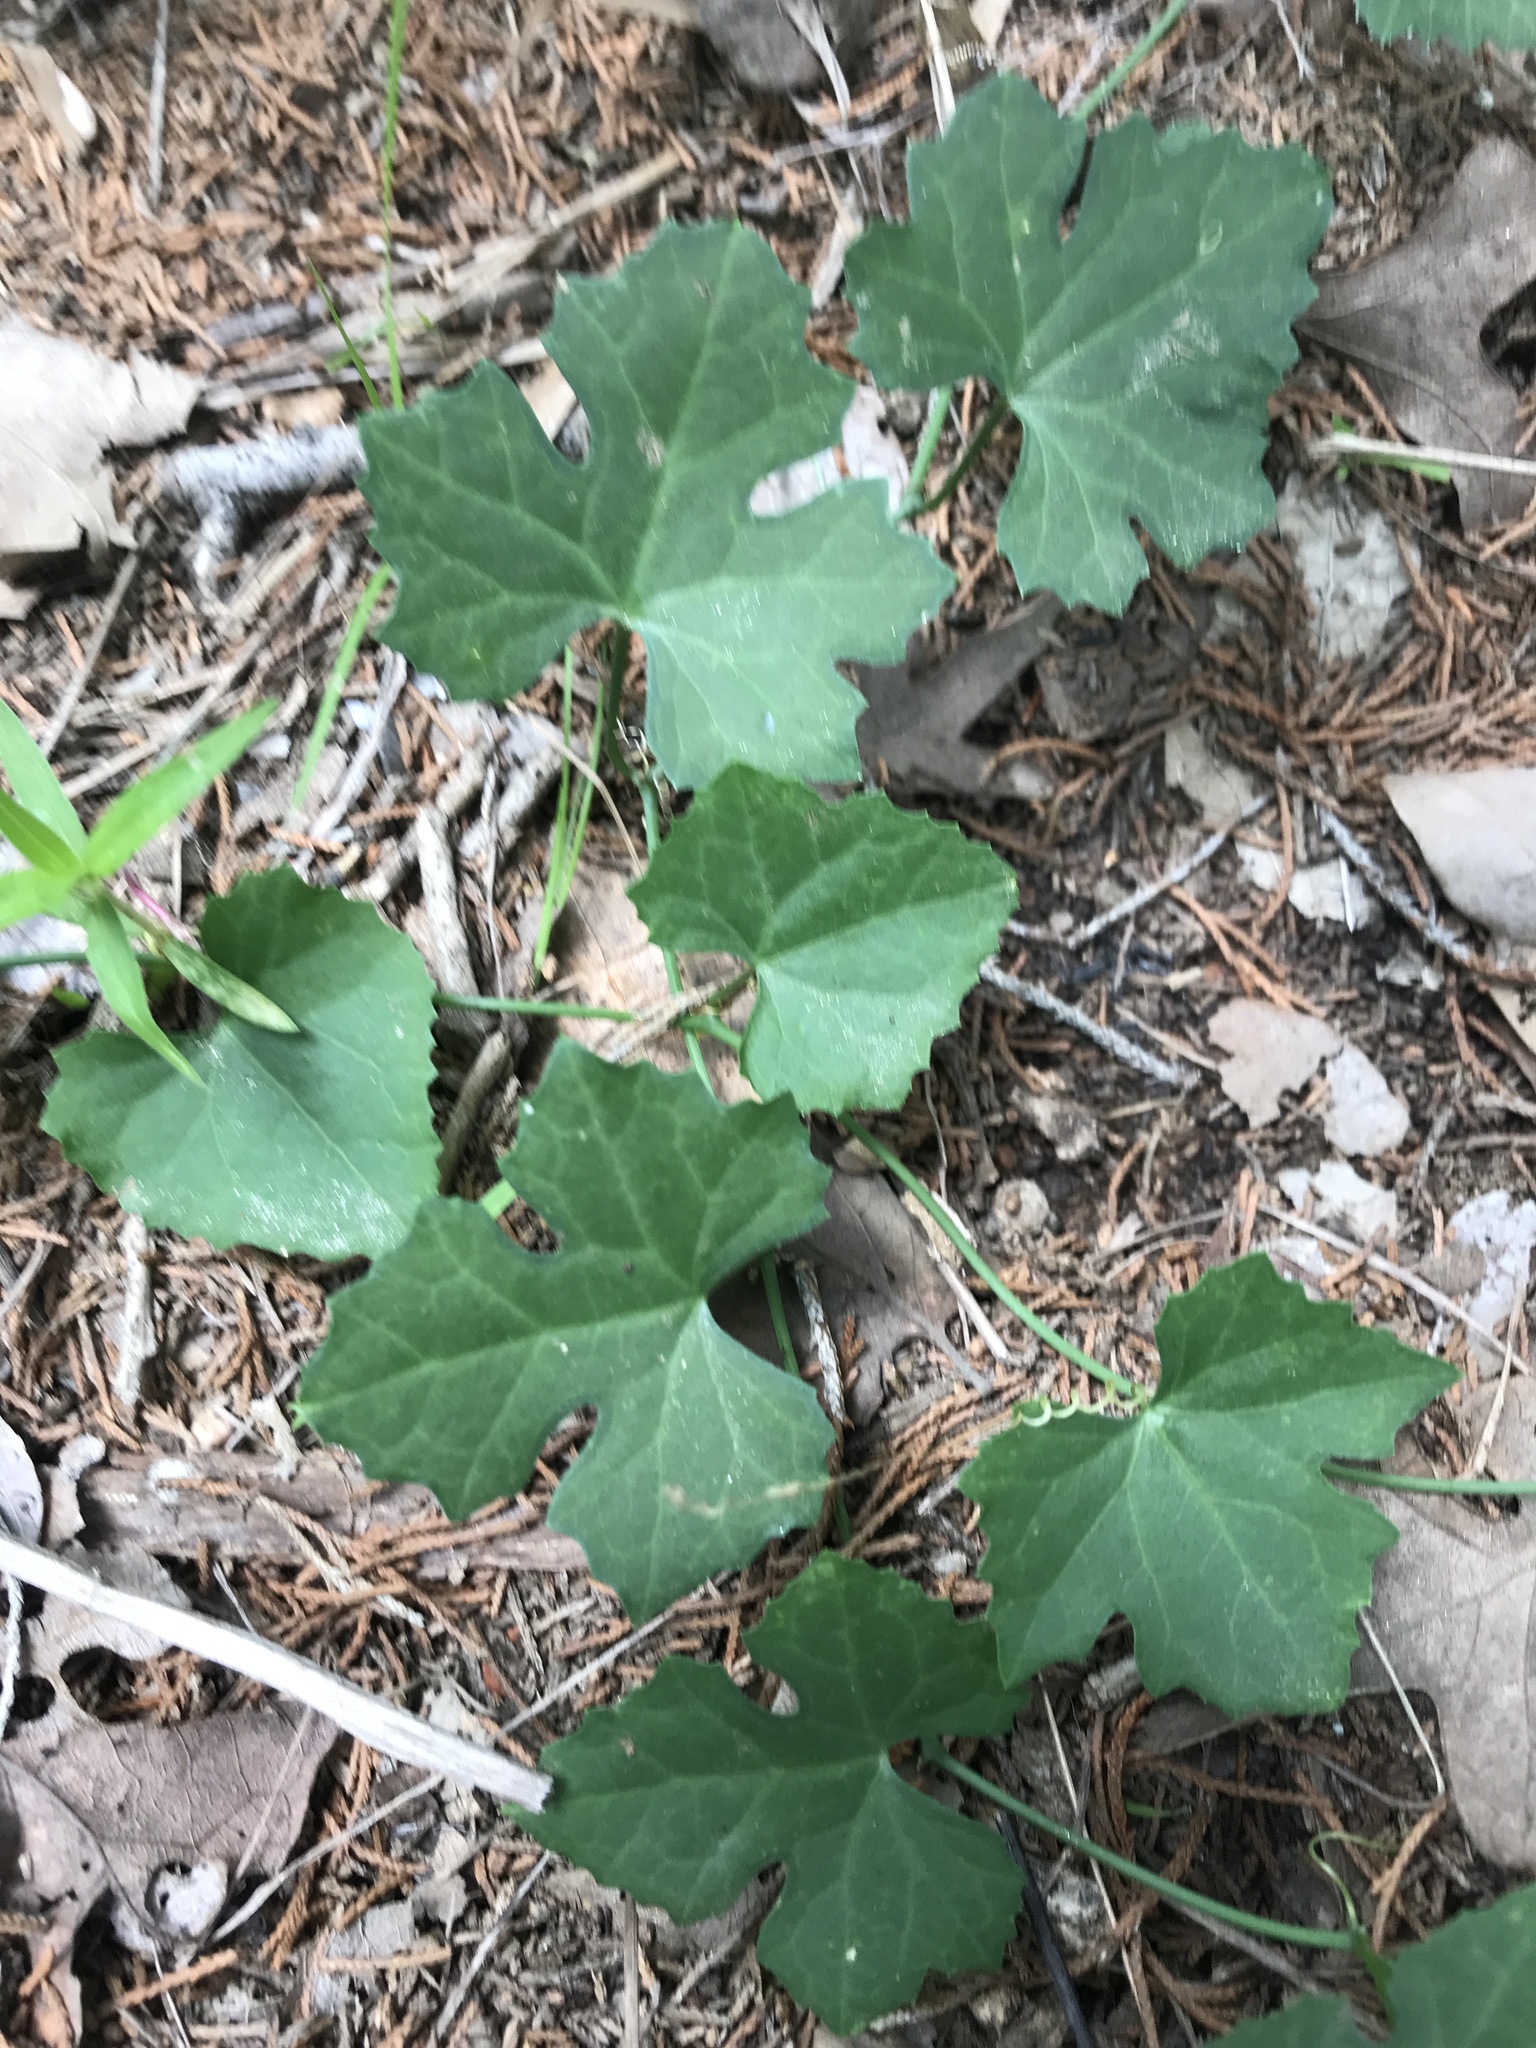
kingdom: Plantae
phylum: Tracheophyta
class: Magnoliopsida
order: Cucurbitales
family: Cucurbitaceae
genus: Ibervillea
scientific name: Ibervillea lindheimeri
